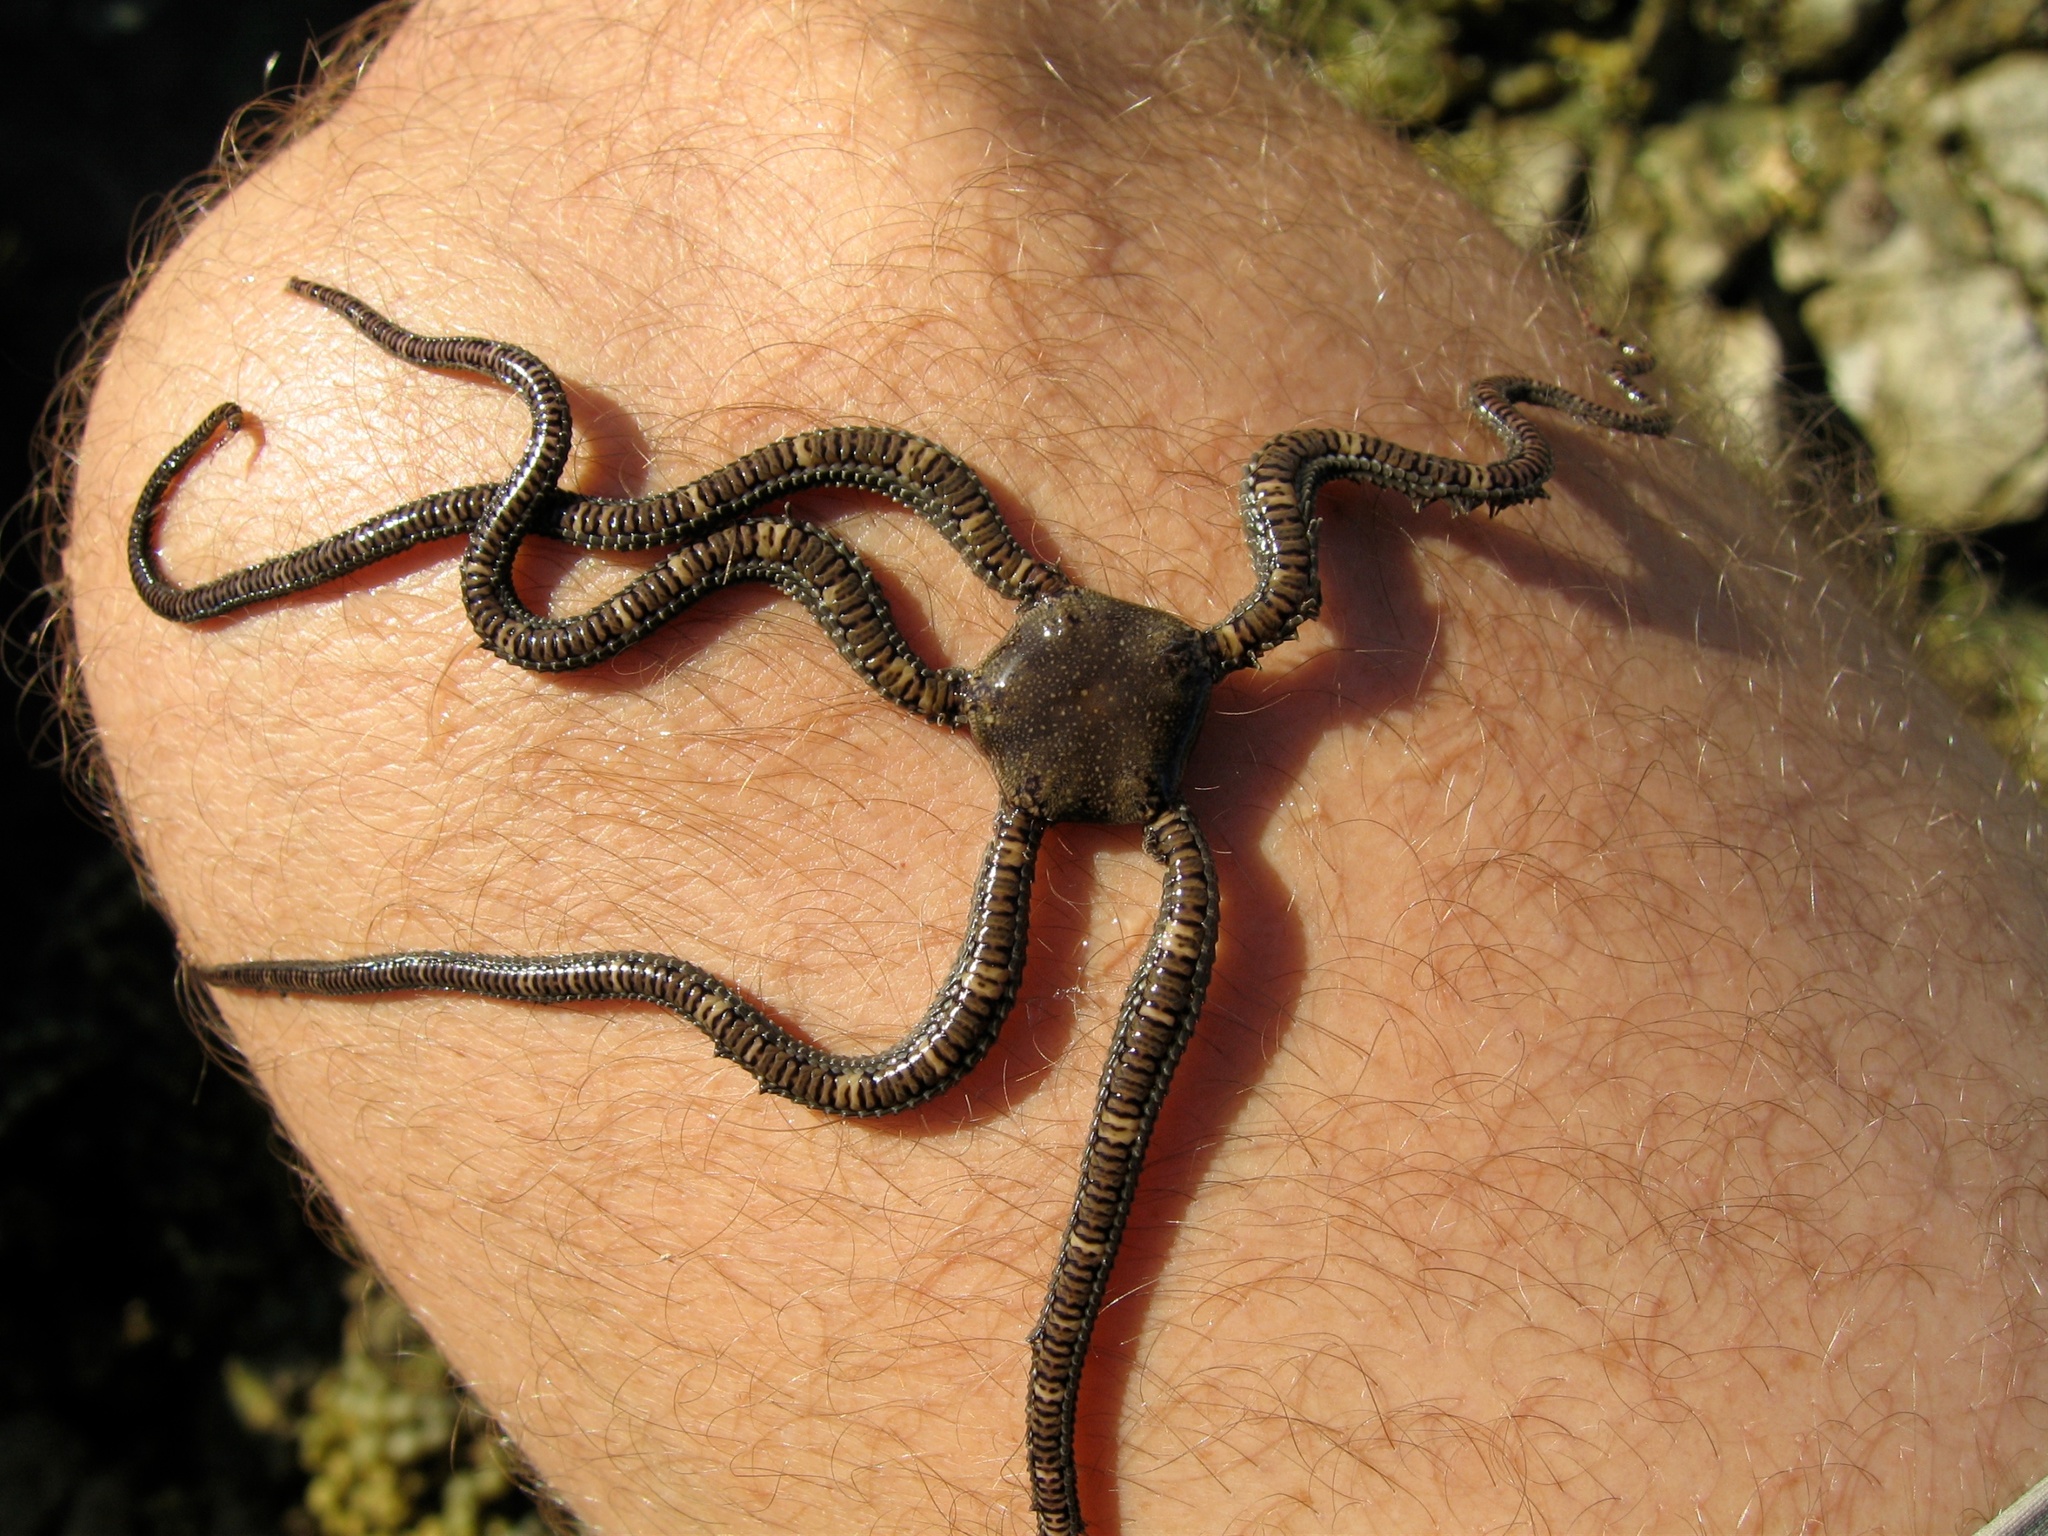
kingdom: Animalia
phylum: Echinodermata
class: Ophiuroidea
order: Amphilepidida
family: Ophionereididae
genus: Ophionereis
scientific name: Ophionereis fasciata
